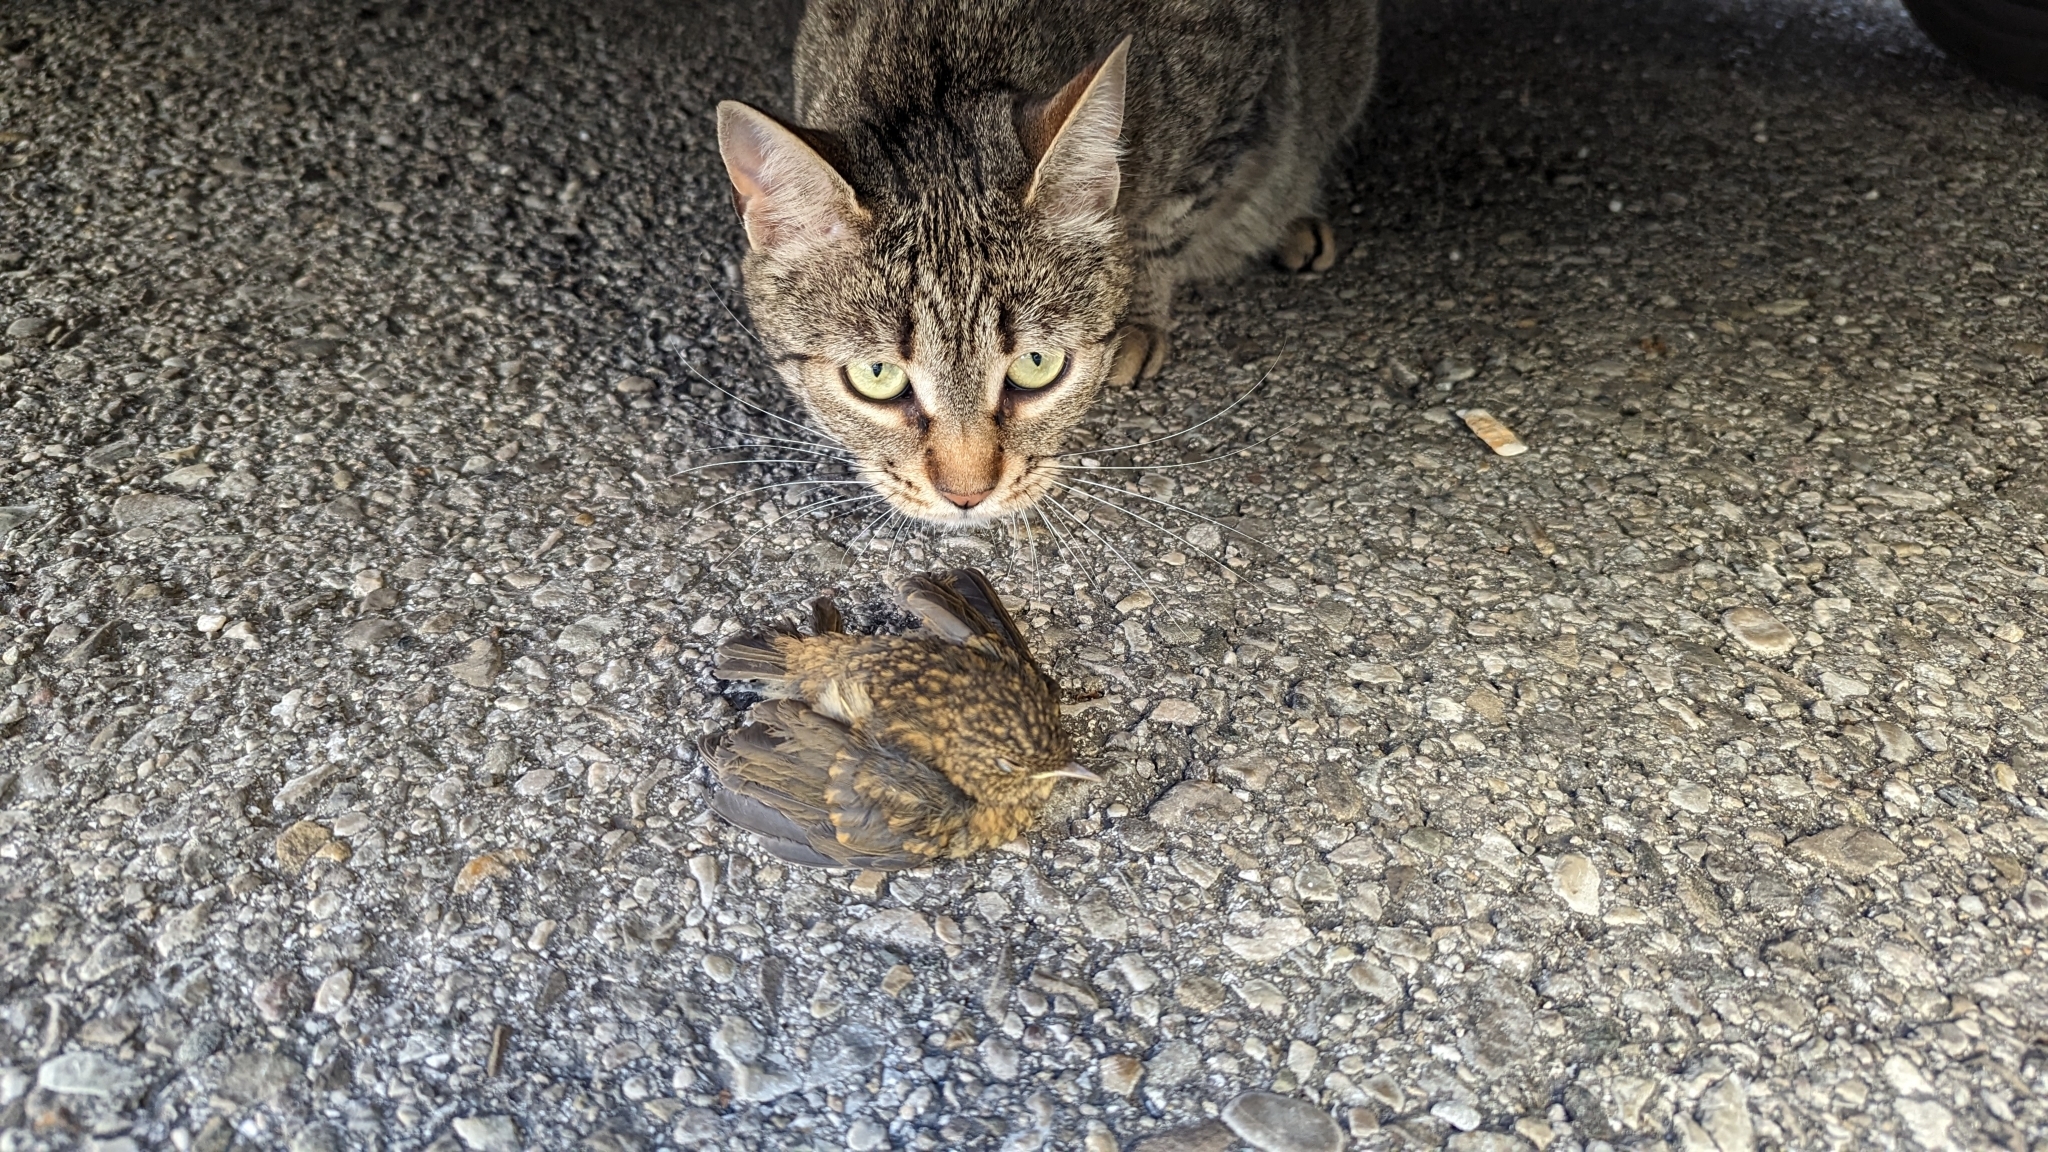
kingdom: Animalia
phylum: Chordata
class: Aves
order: Passeriformes
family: Muscicapidae
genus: Erithacus
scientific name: Erithacus rubecula
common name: European robin
